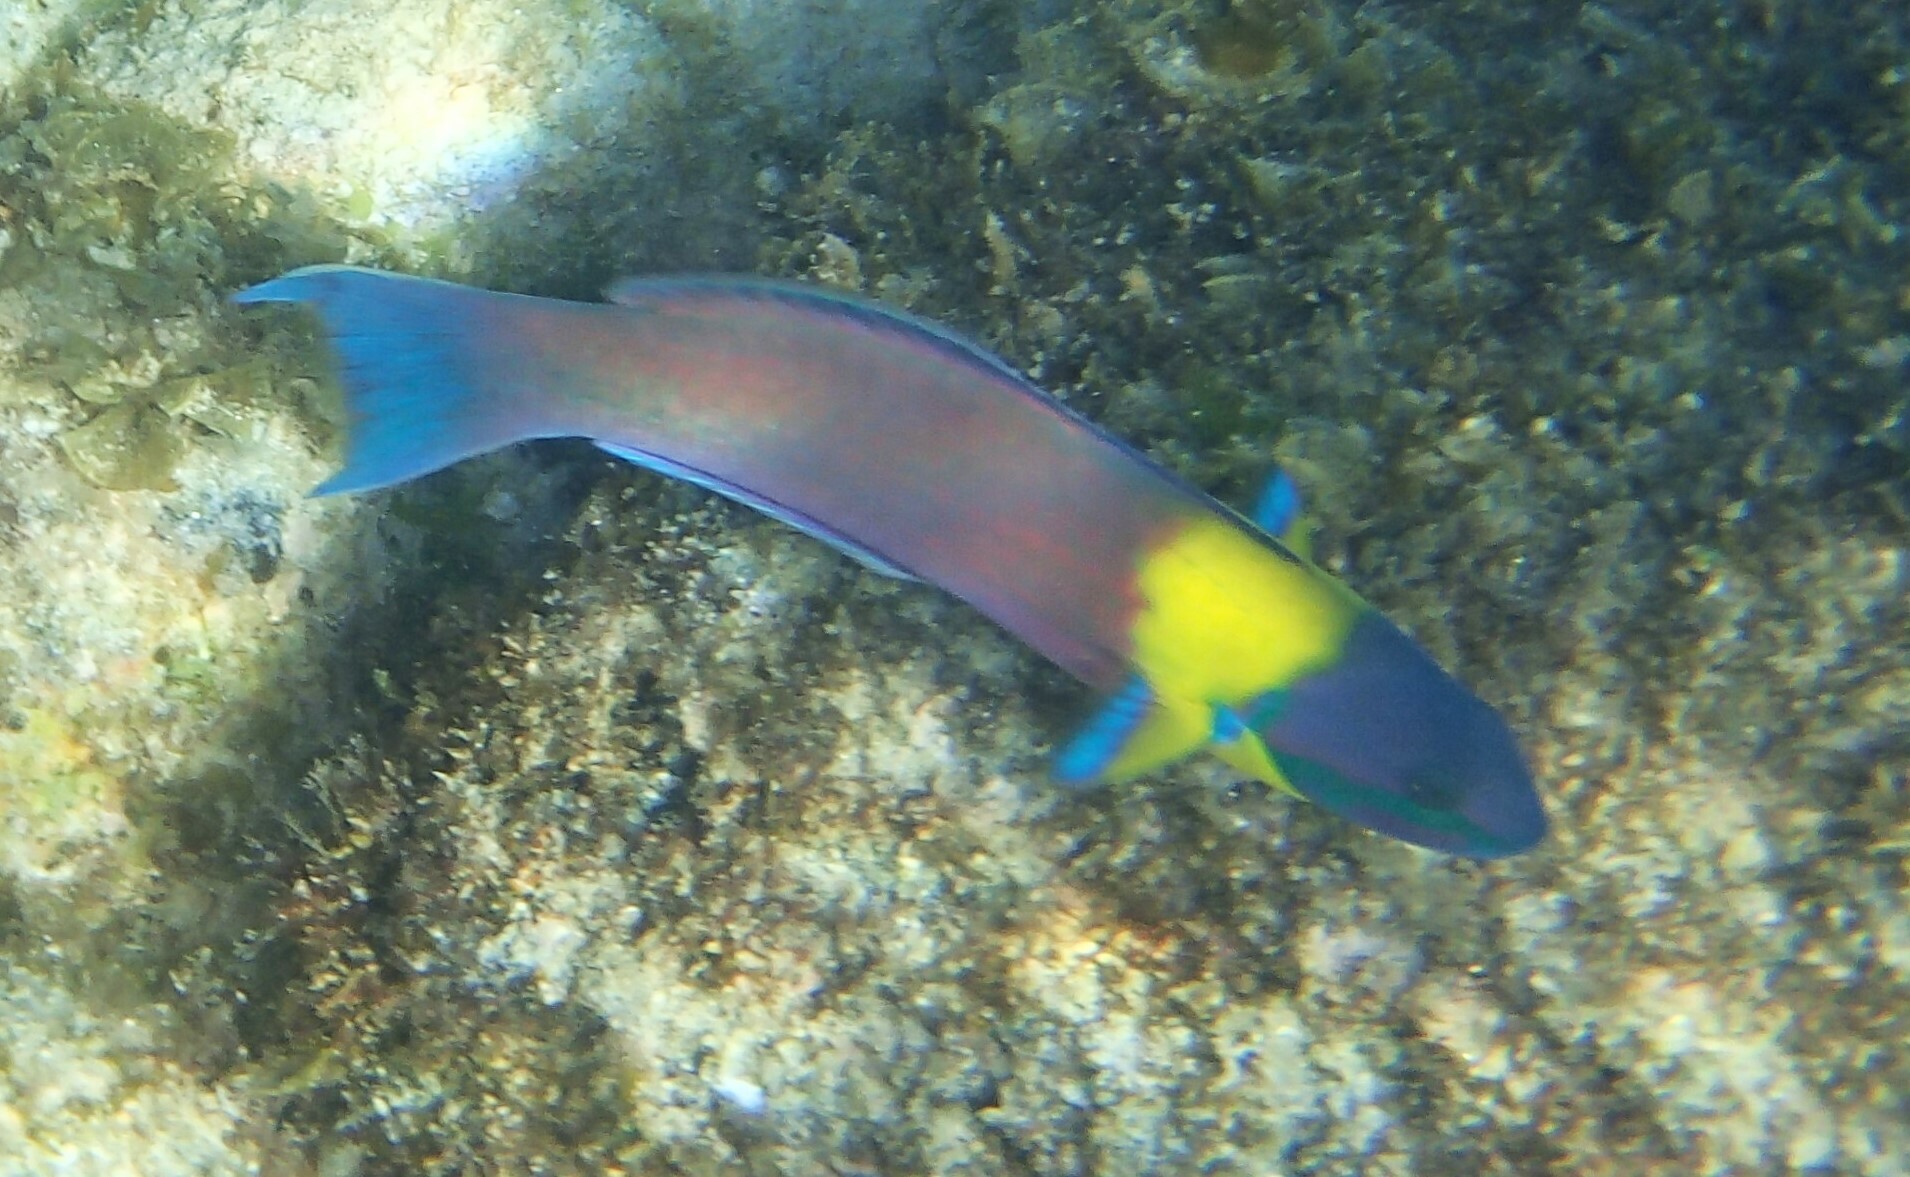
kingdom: Animalia
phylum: Chordata
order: Perciformes
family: Labridae
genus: Thalassoma
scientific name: Thalassoma lucasanum
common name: Cortez rainbow wrasse
